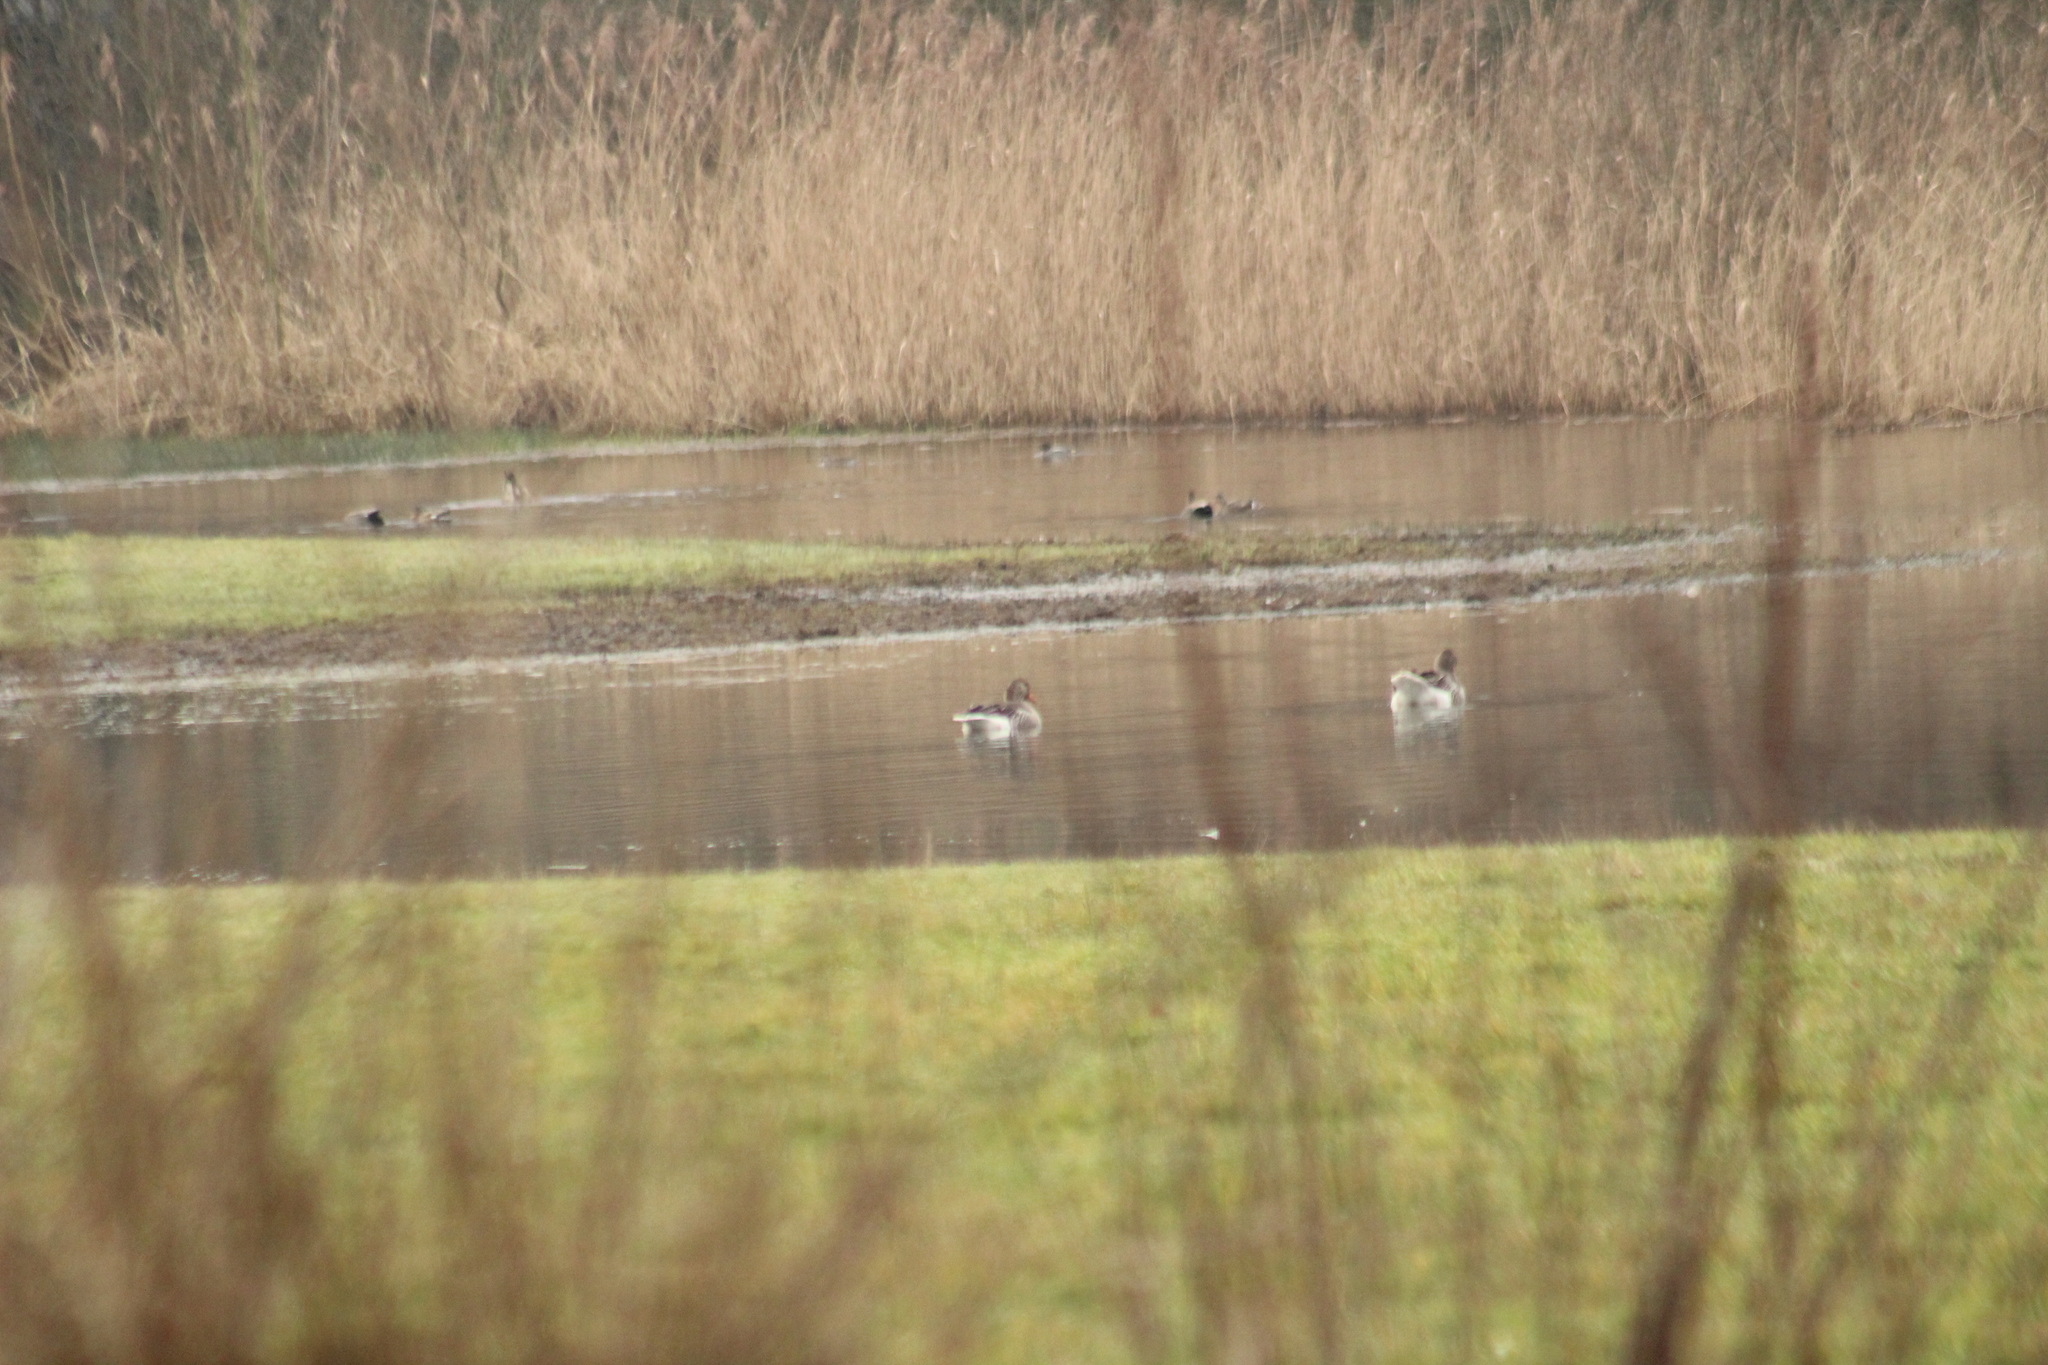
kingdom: Animalia
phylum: Chordata
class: Aves
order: Anseriformes
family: Anatidae
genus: Anser
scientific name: Anser anser
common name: Greylag goose
